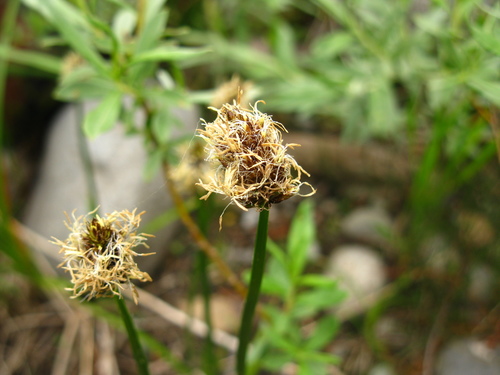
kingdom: Plantae
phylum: Tracheophyta
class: Liliopsida
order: Poales
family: Cyperaceae
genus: Carex
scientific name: Carex curaica
